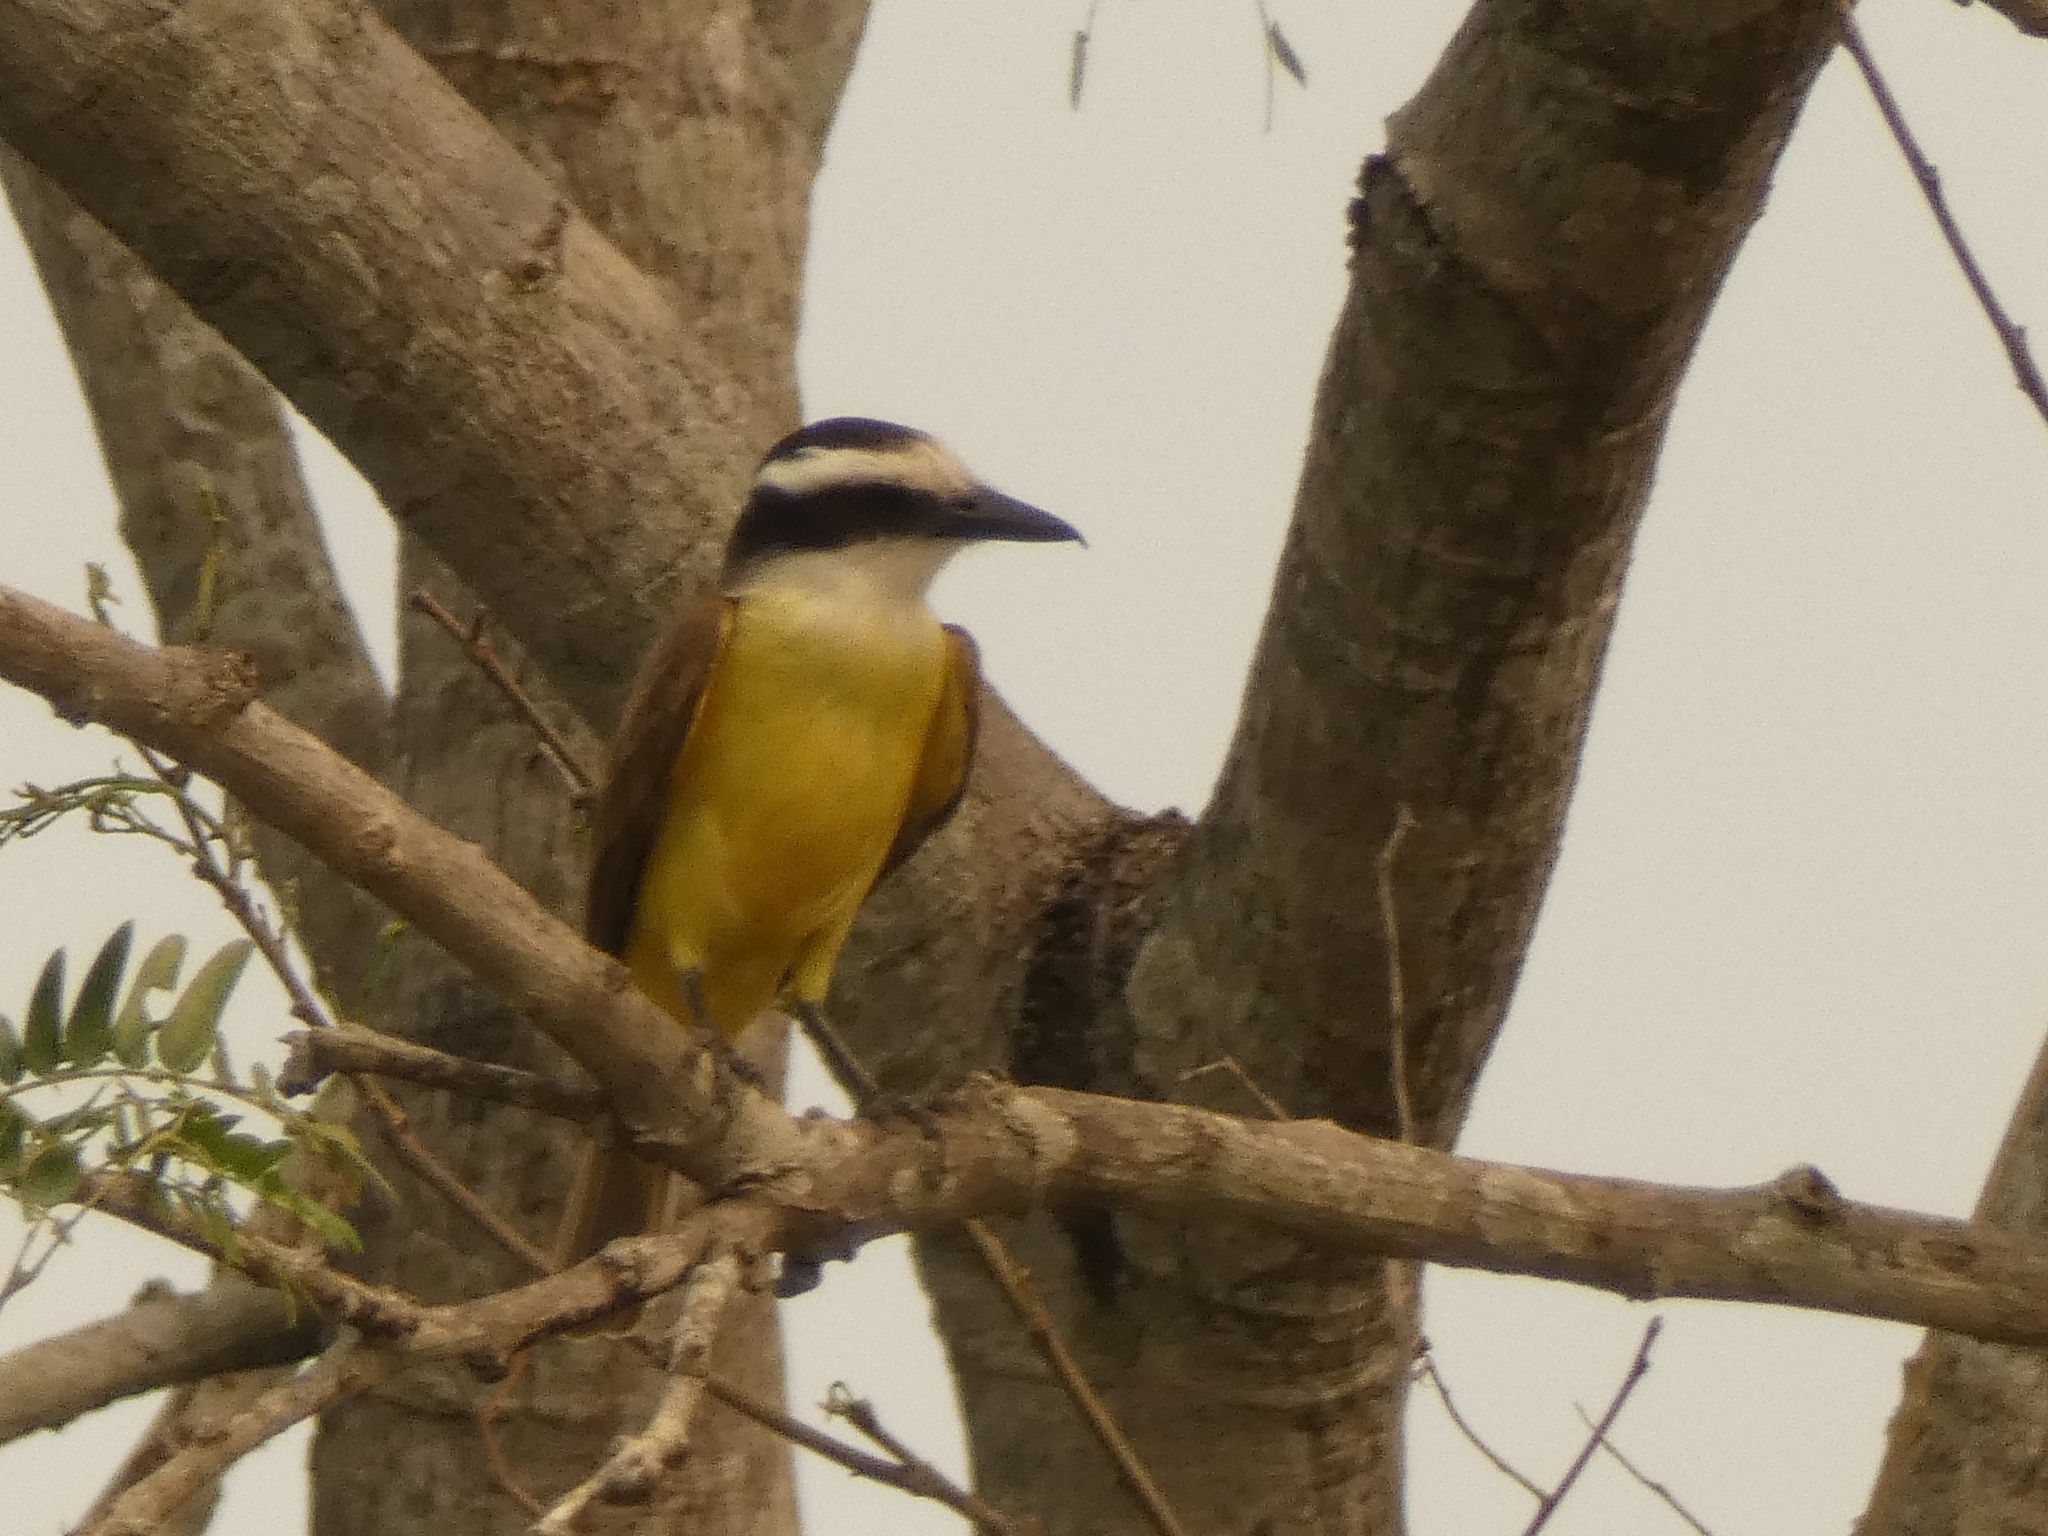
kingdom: Animalia
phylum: Chordata
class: Aves
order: Passeriformes
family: Tyrannidae
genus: Pitangus
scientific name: Pitangus sulphuratus
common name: Great kiskadee
